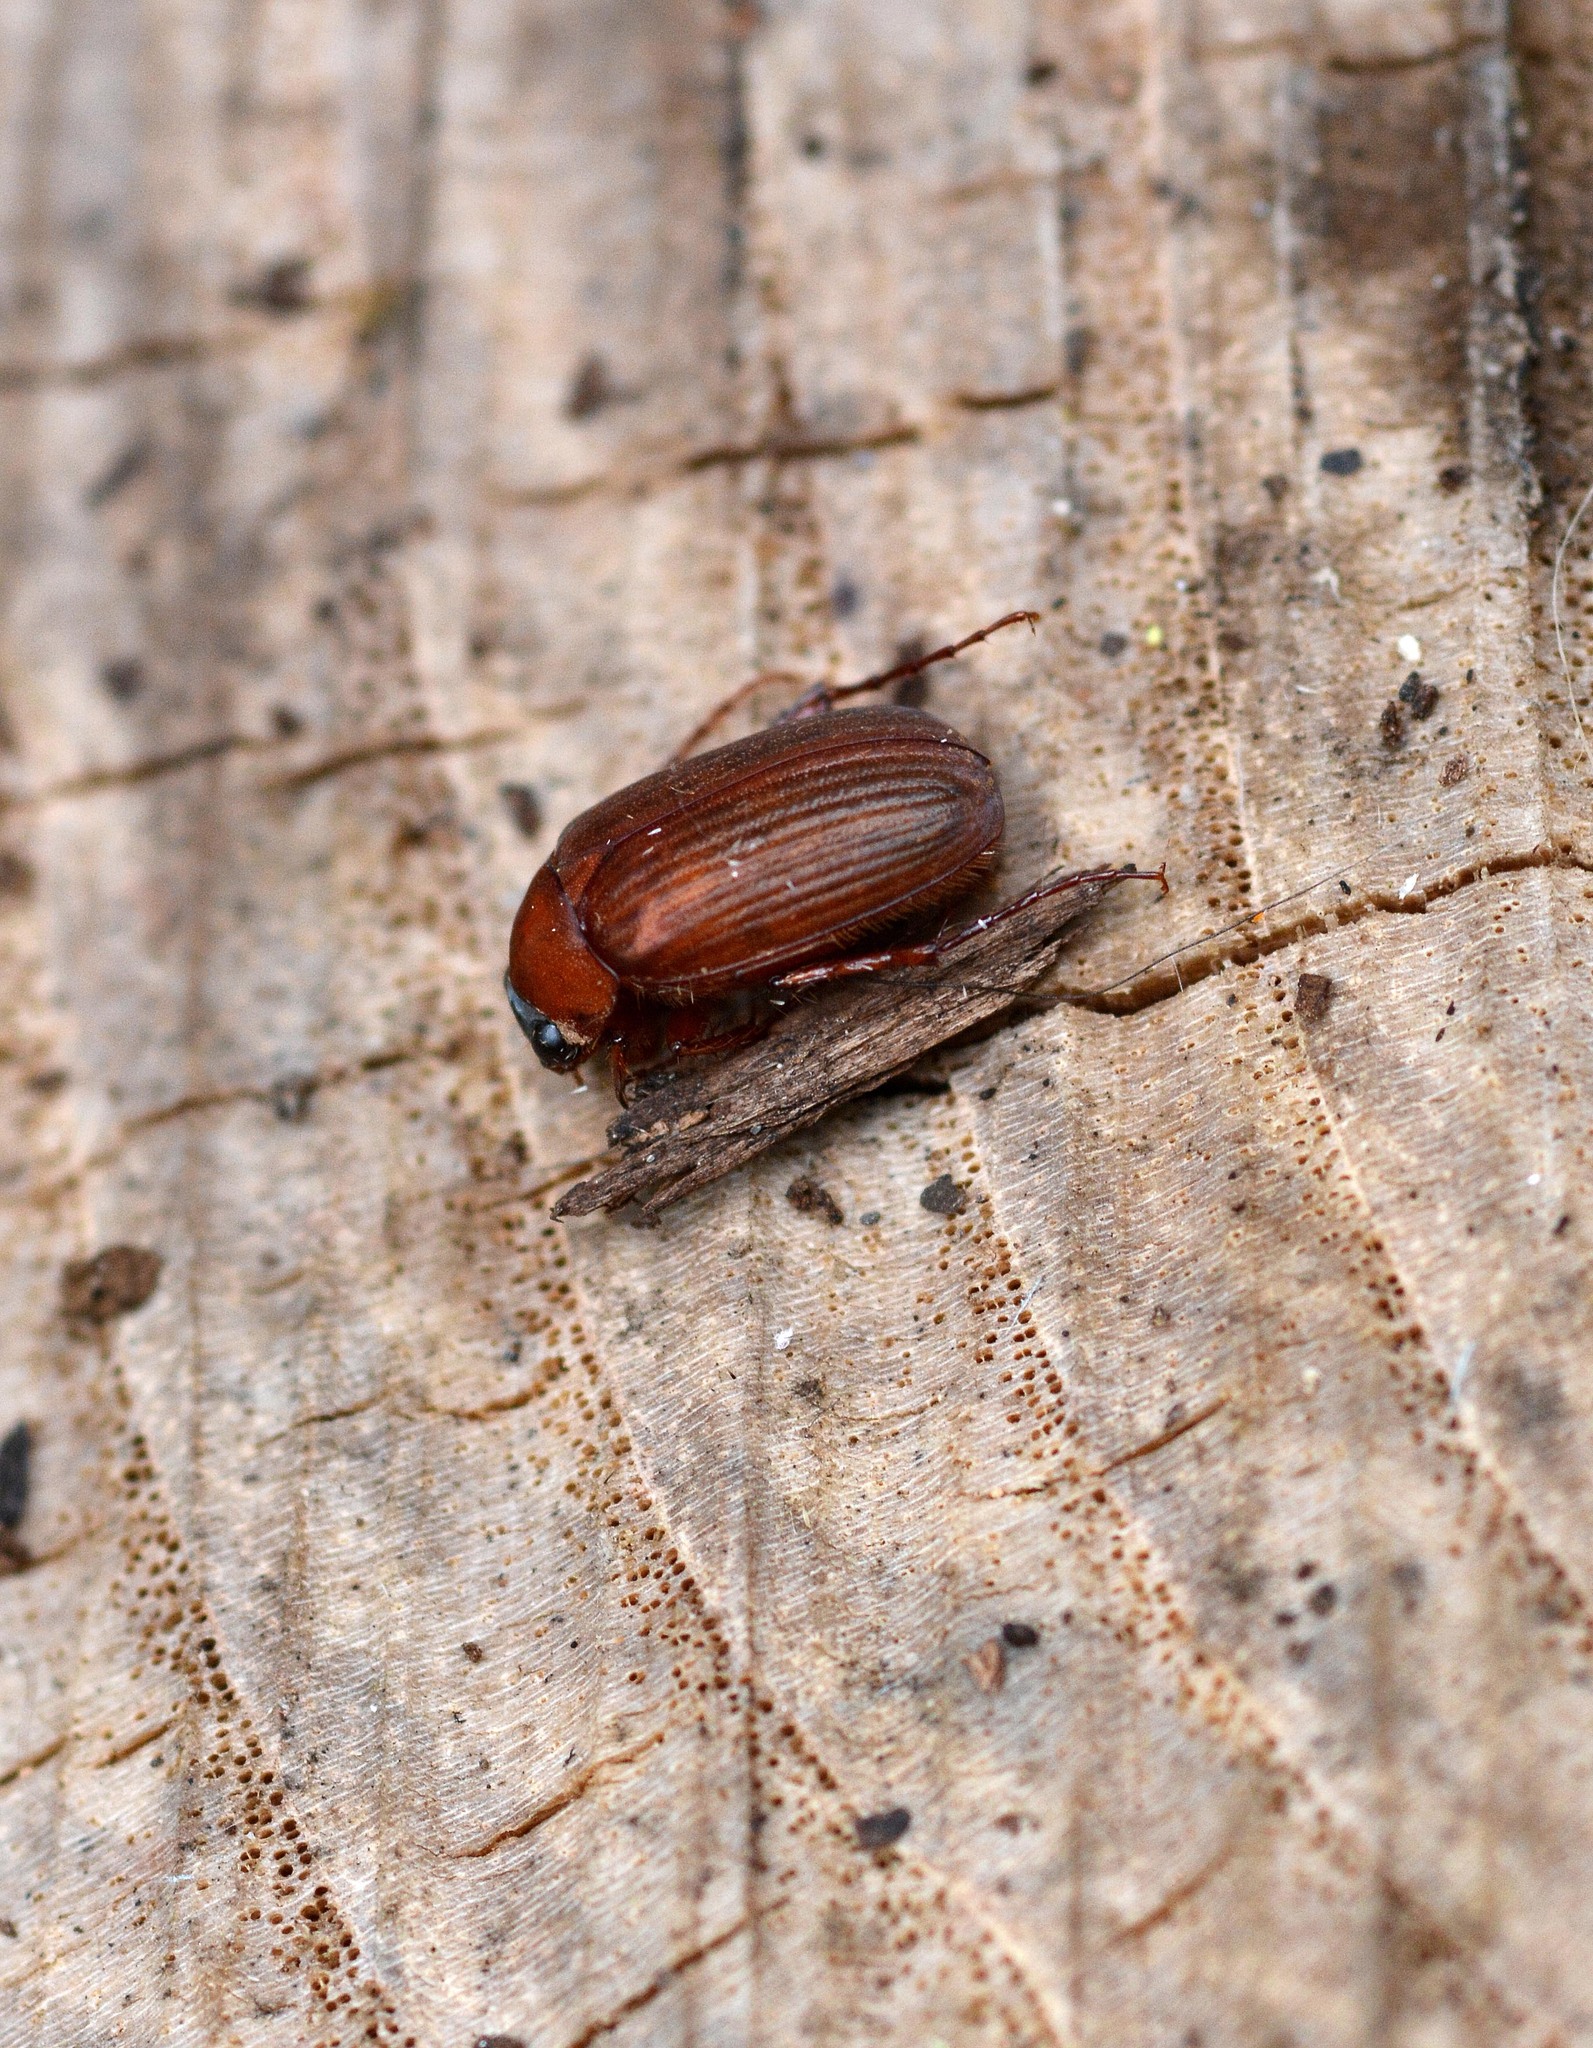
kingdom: Animalia
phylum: Arthropoda
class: Insecta
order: Coleoptera
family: Scarabaeidae
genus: Serica
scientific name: Serica brunnea
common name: Brown chafer
